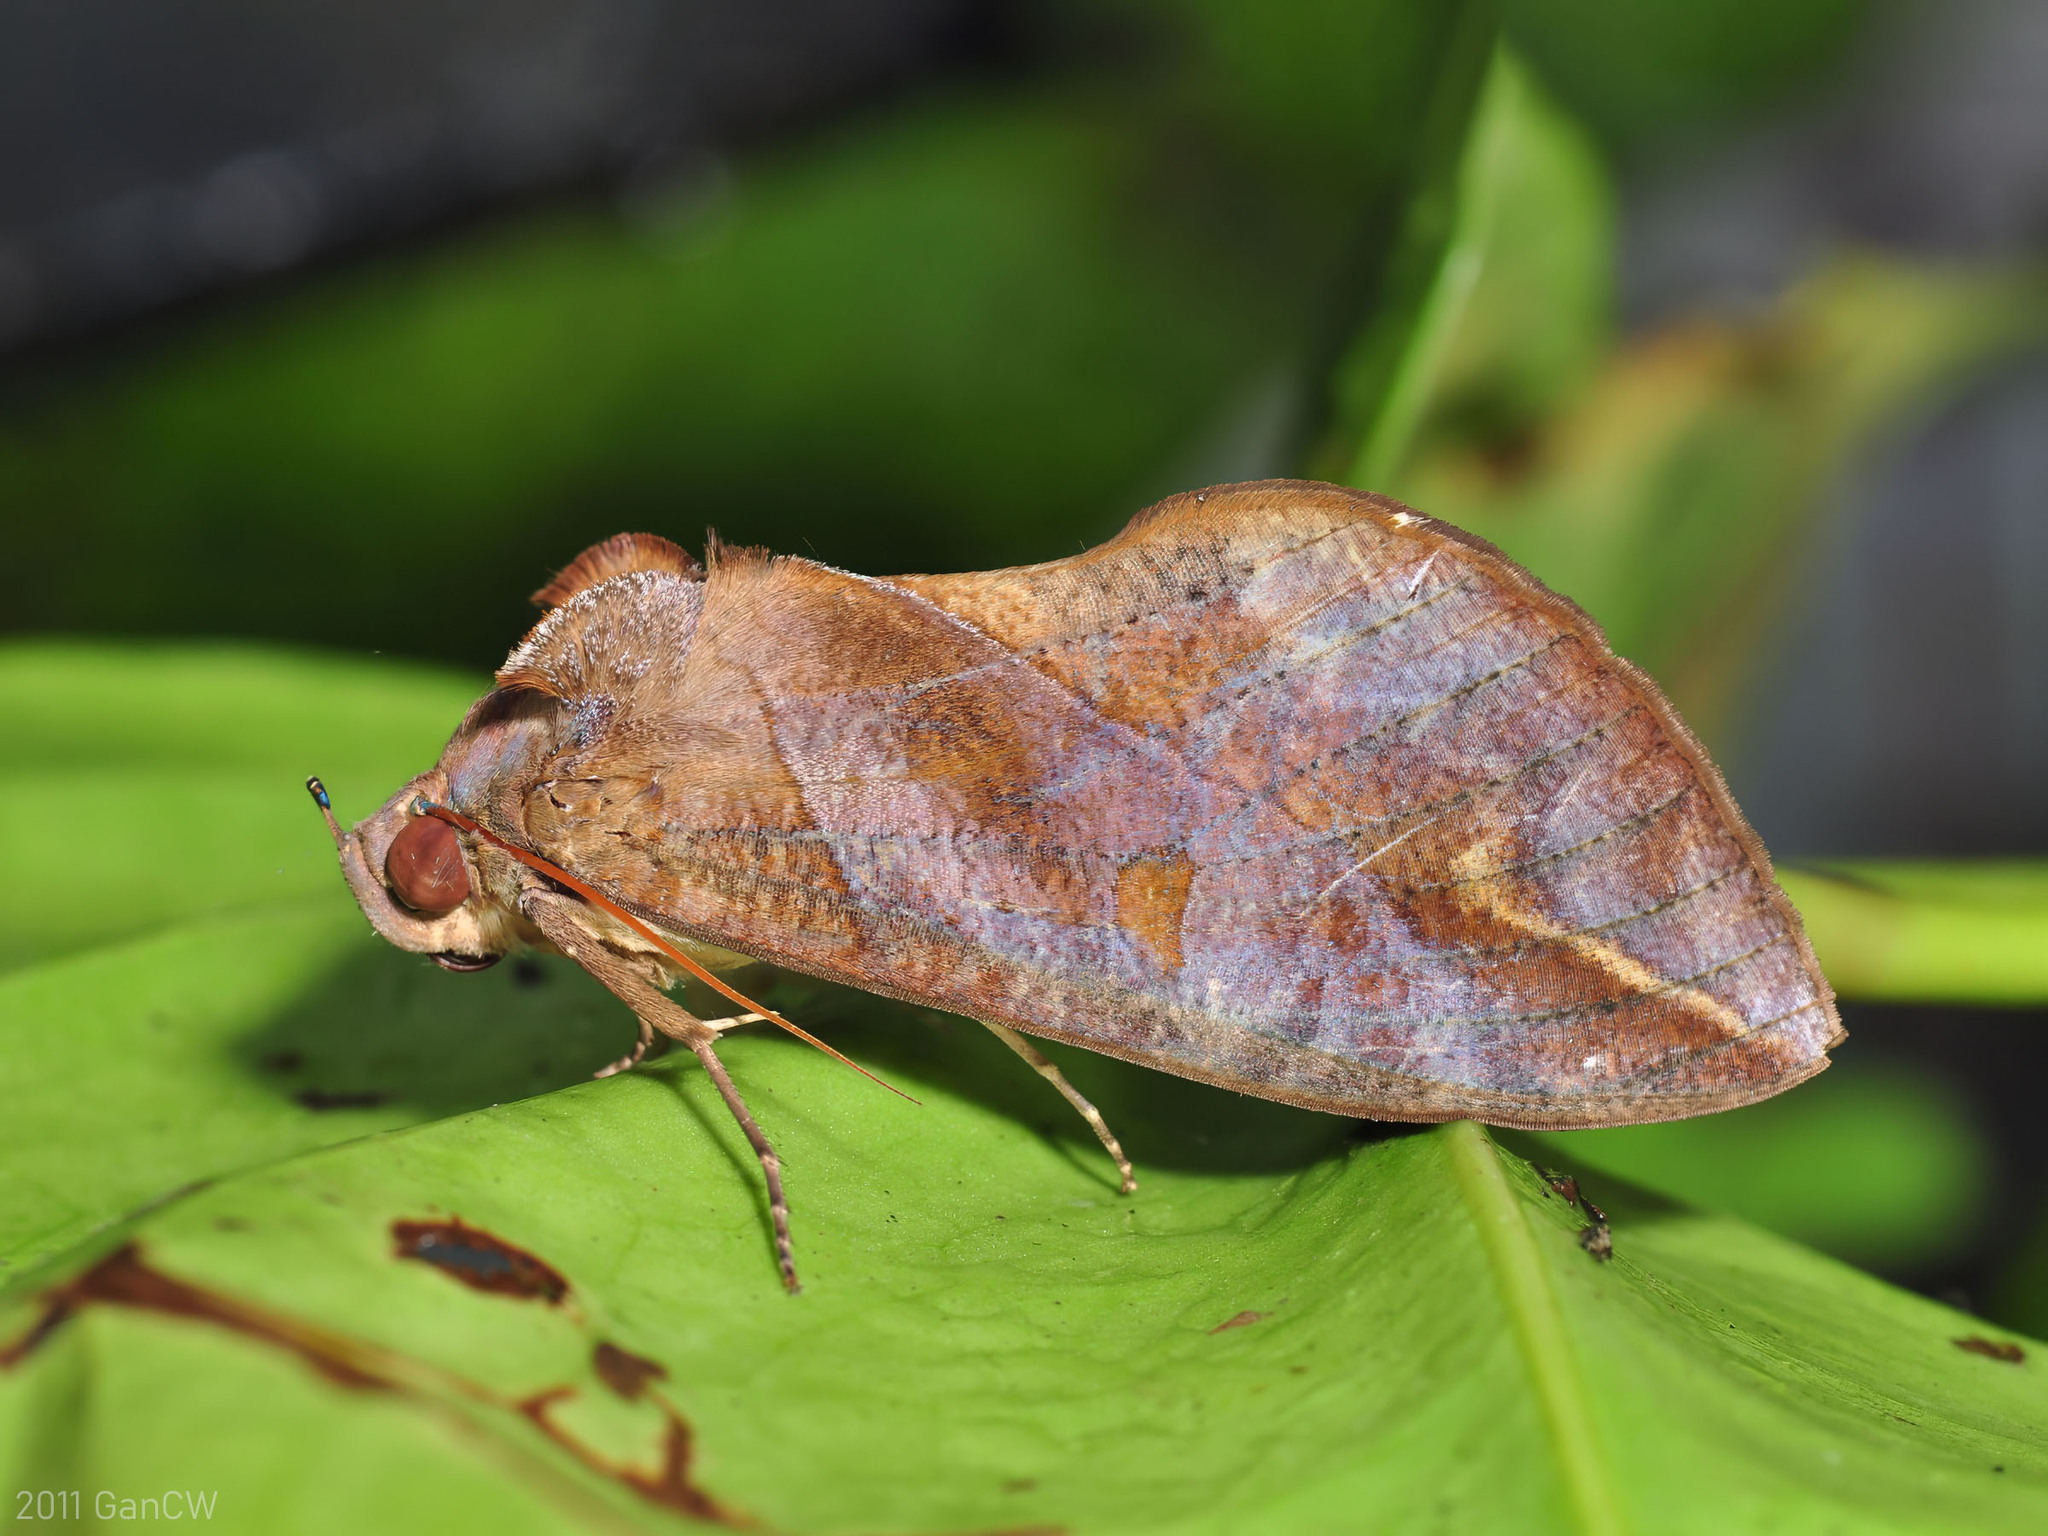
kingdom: Animalia
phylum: Arthropoda
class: Insecta
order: Lepidoptera
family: Erebidae
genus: Eudocima
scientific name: Eudocima phalonia
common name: Wasp
